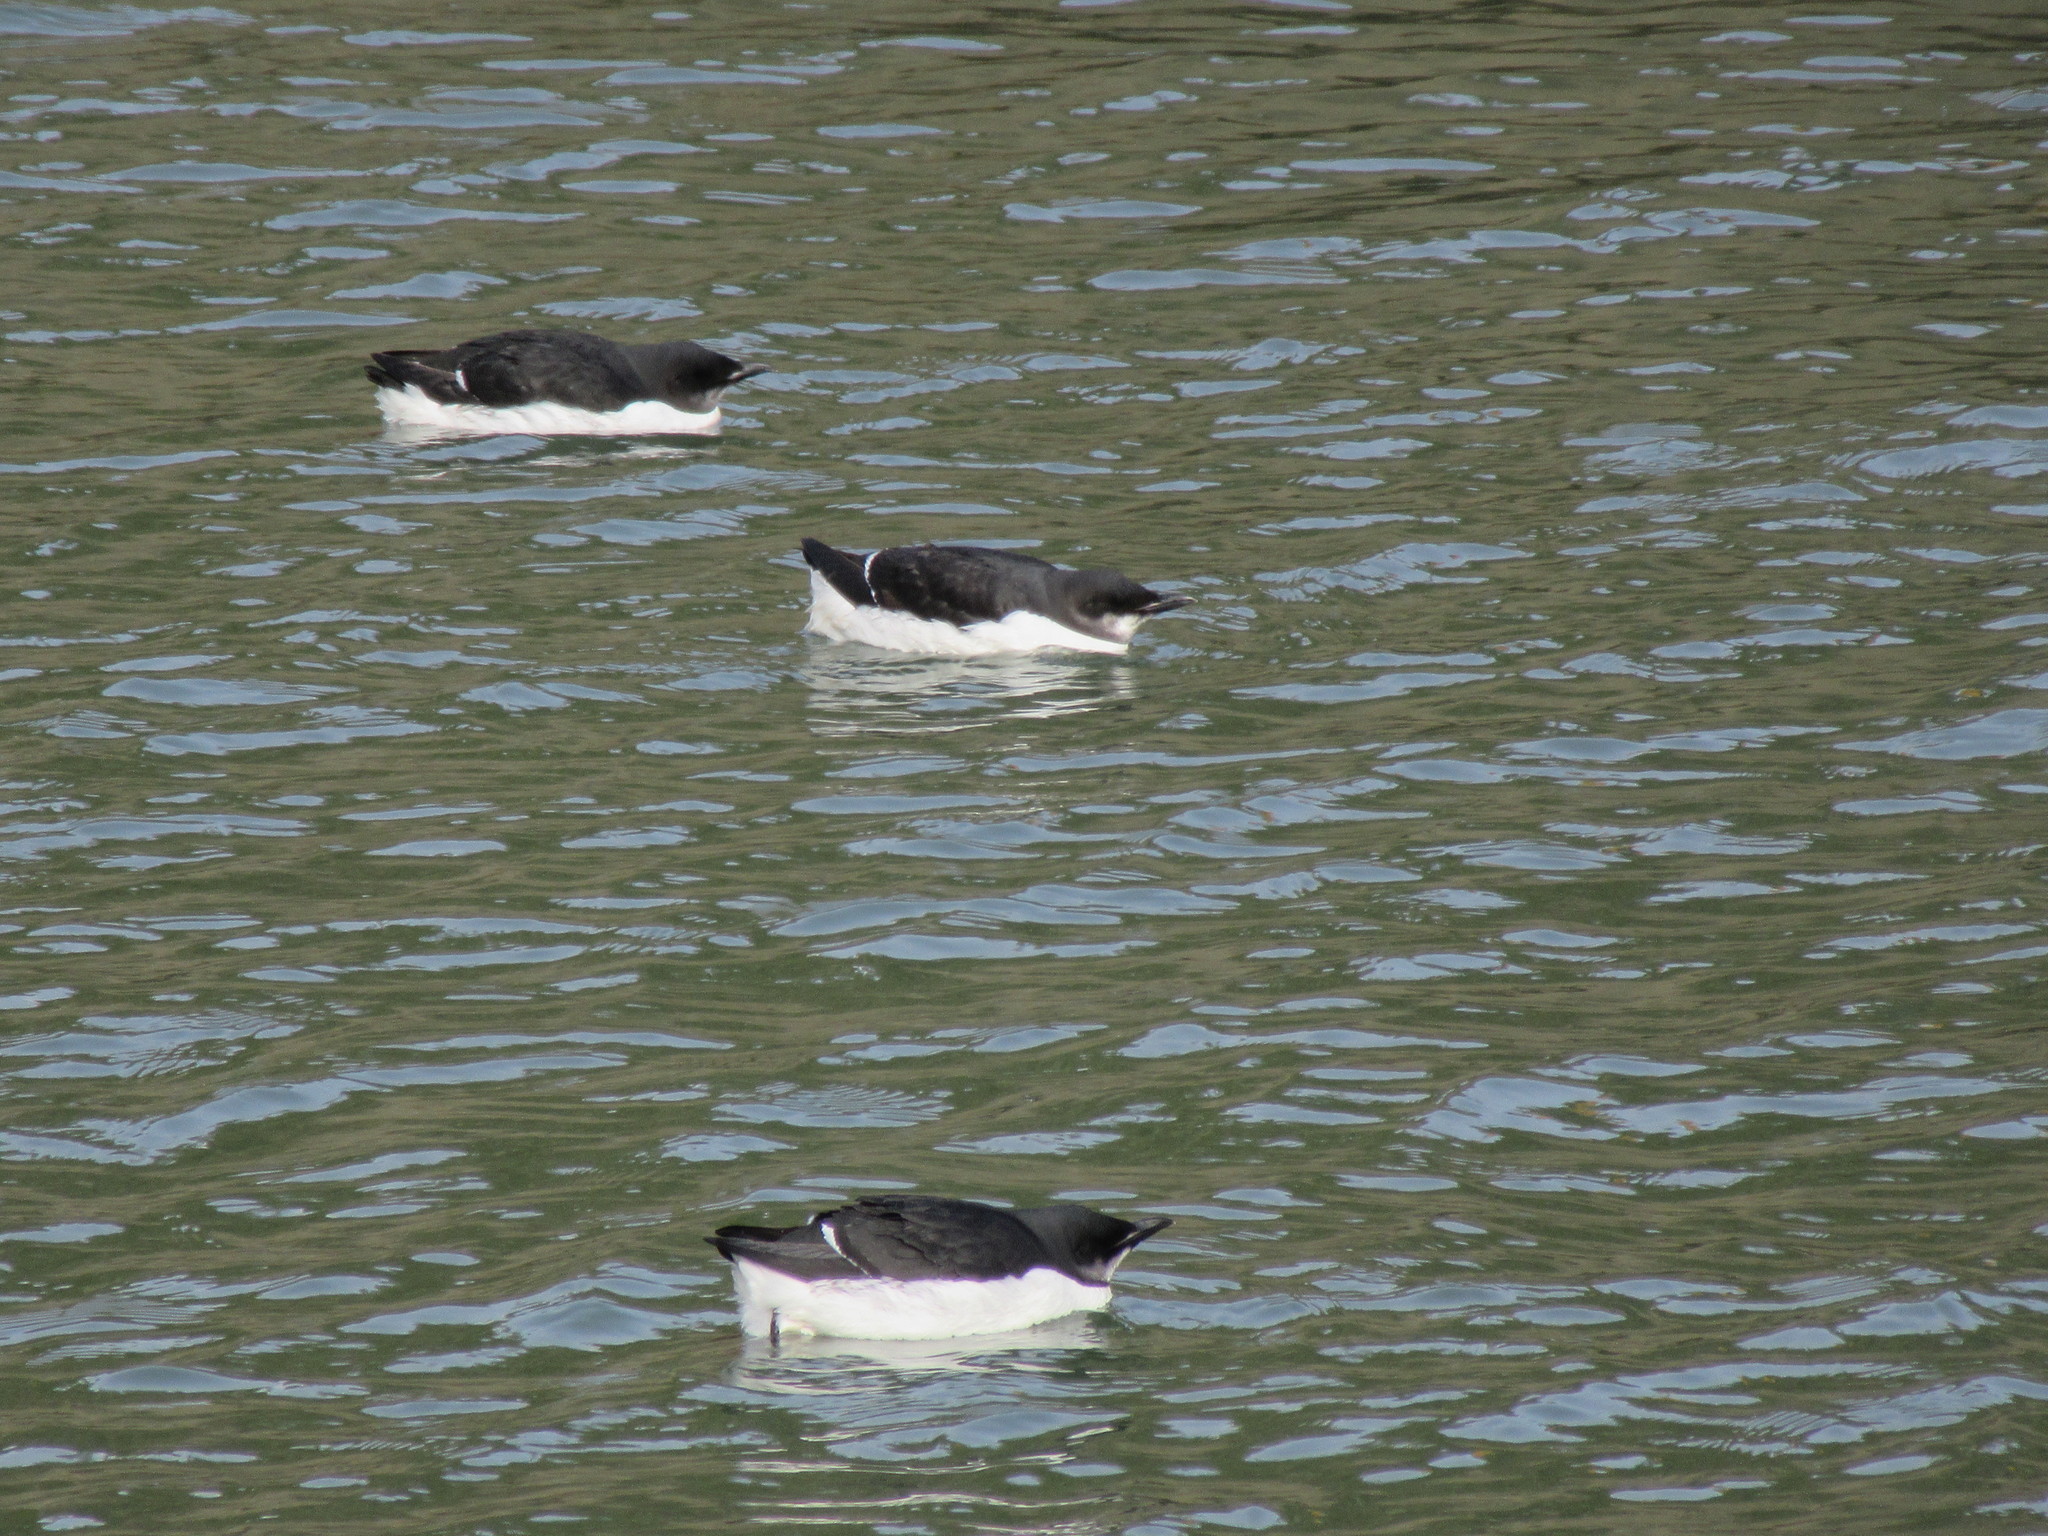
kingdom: Animalia
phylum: Chordata
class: Aves
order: Charadriiformes
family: Alcidae
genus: Uria
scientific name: Uria lomvia
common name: Thick-billed murre
